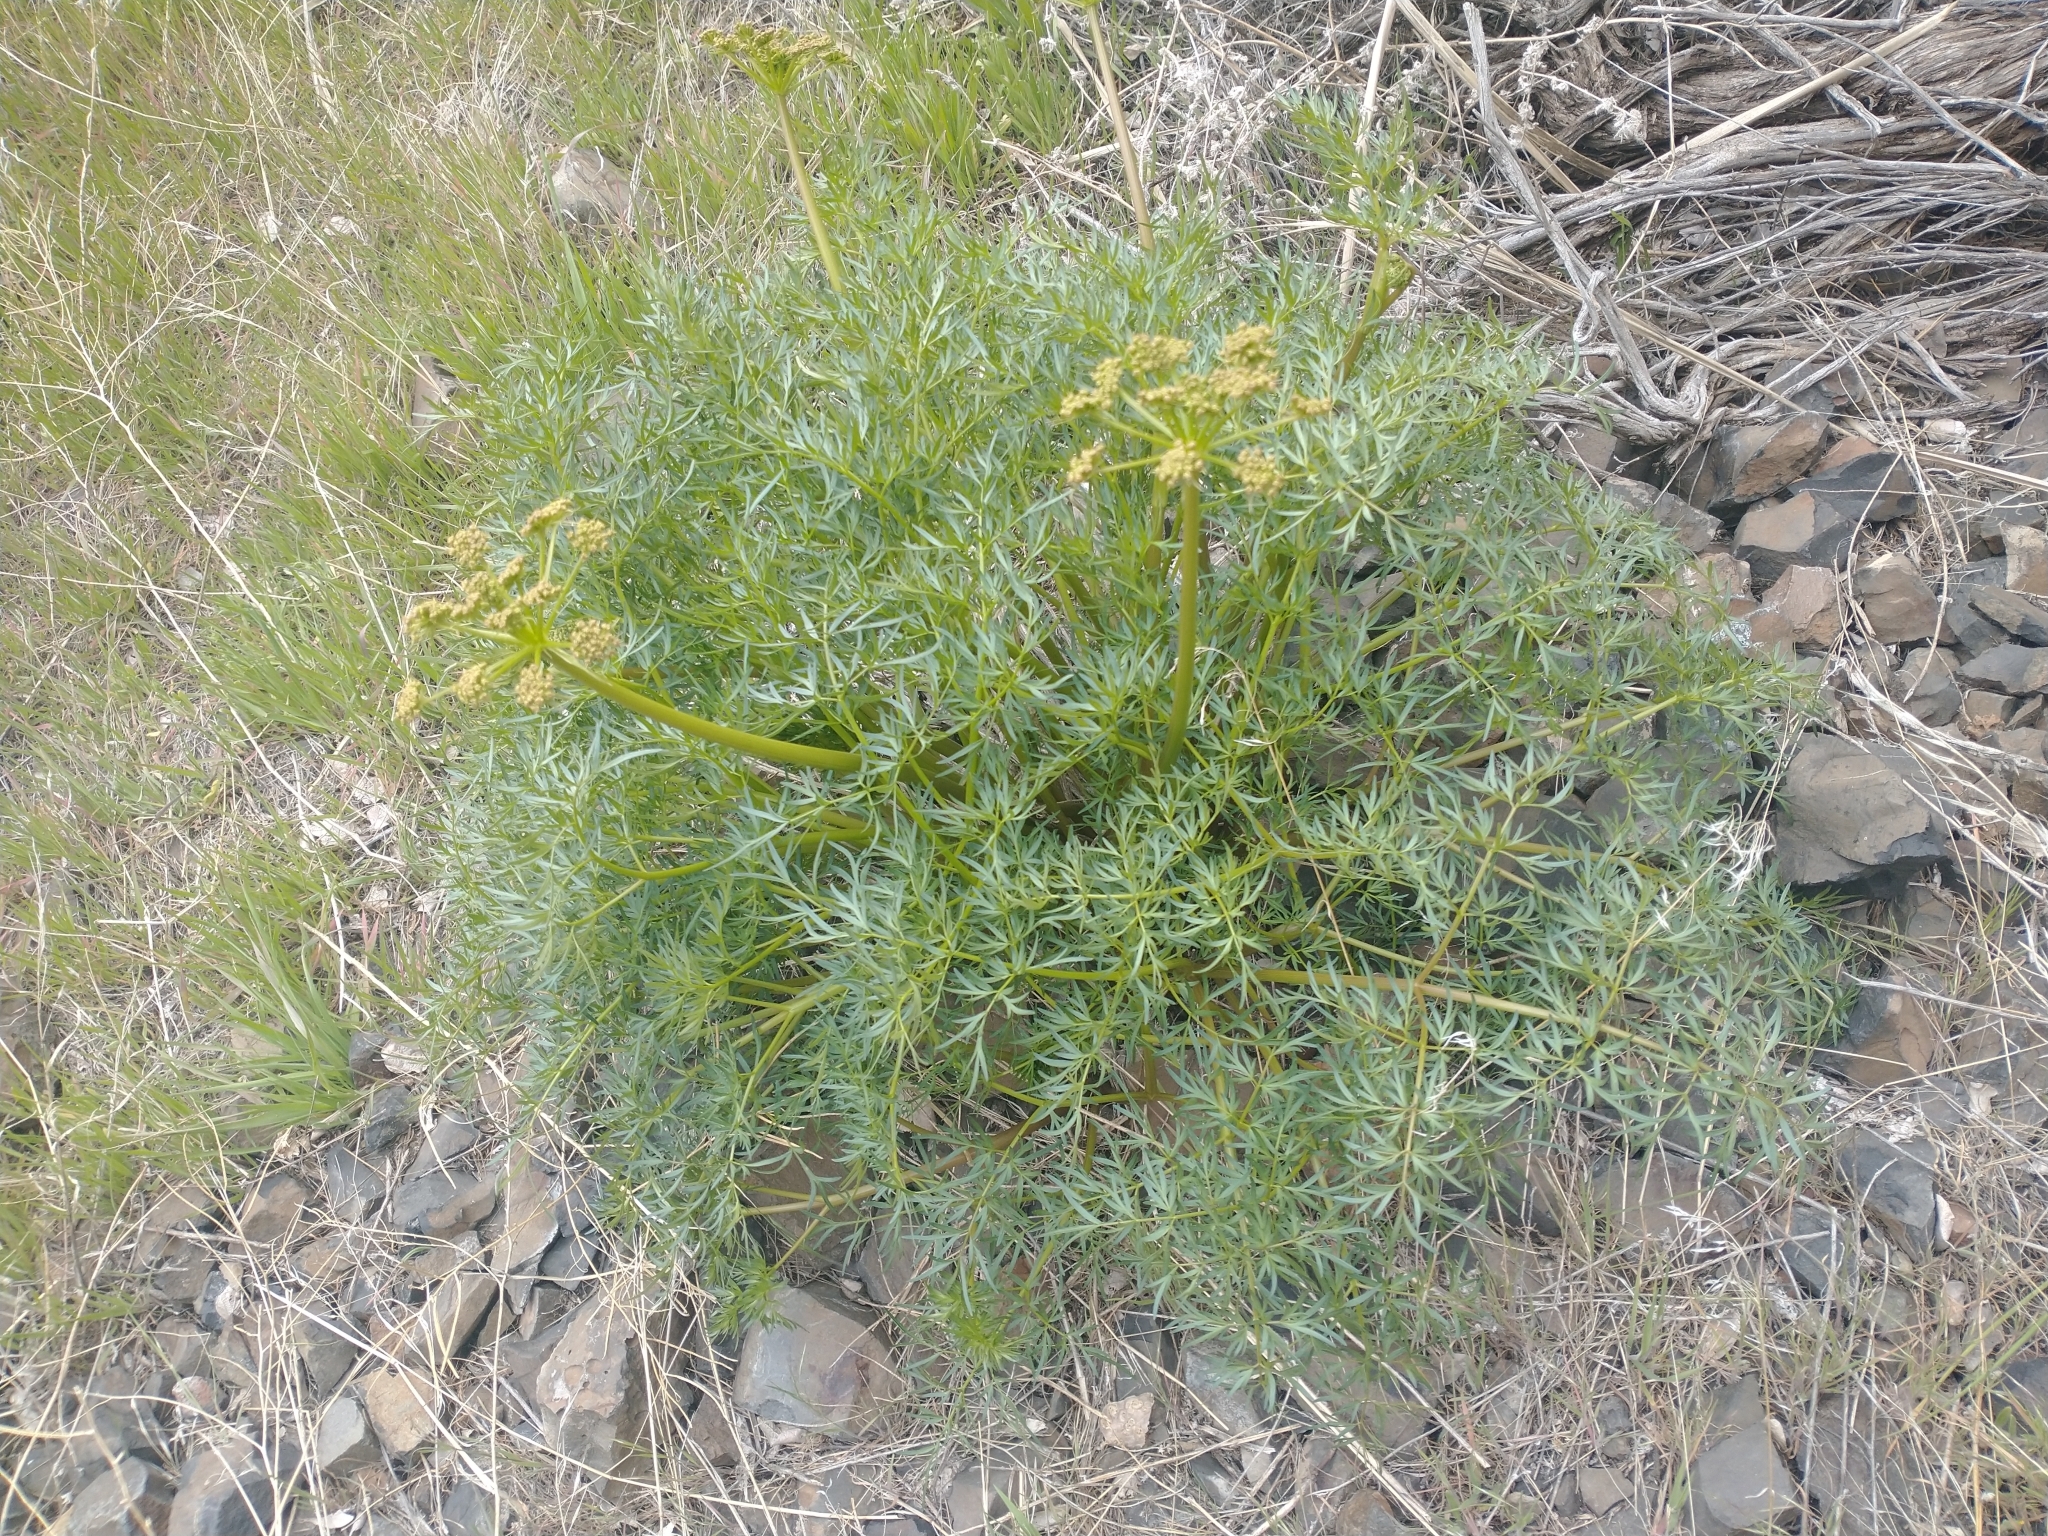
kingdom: Plantae
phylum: Tracheophyta
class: Magnoliopsida
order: Apiales
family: Apiaceae
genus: Lomatium
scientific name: Lomatium multifidum
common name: Carrot-leaved biscuitroot
